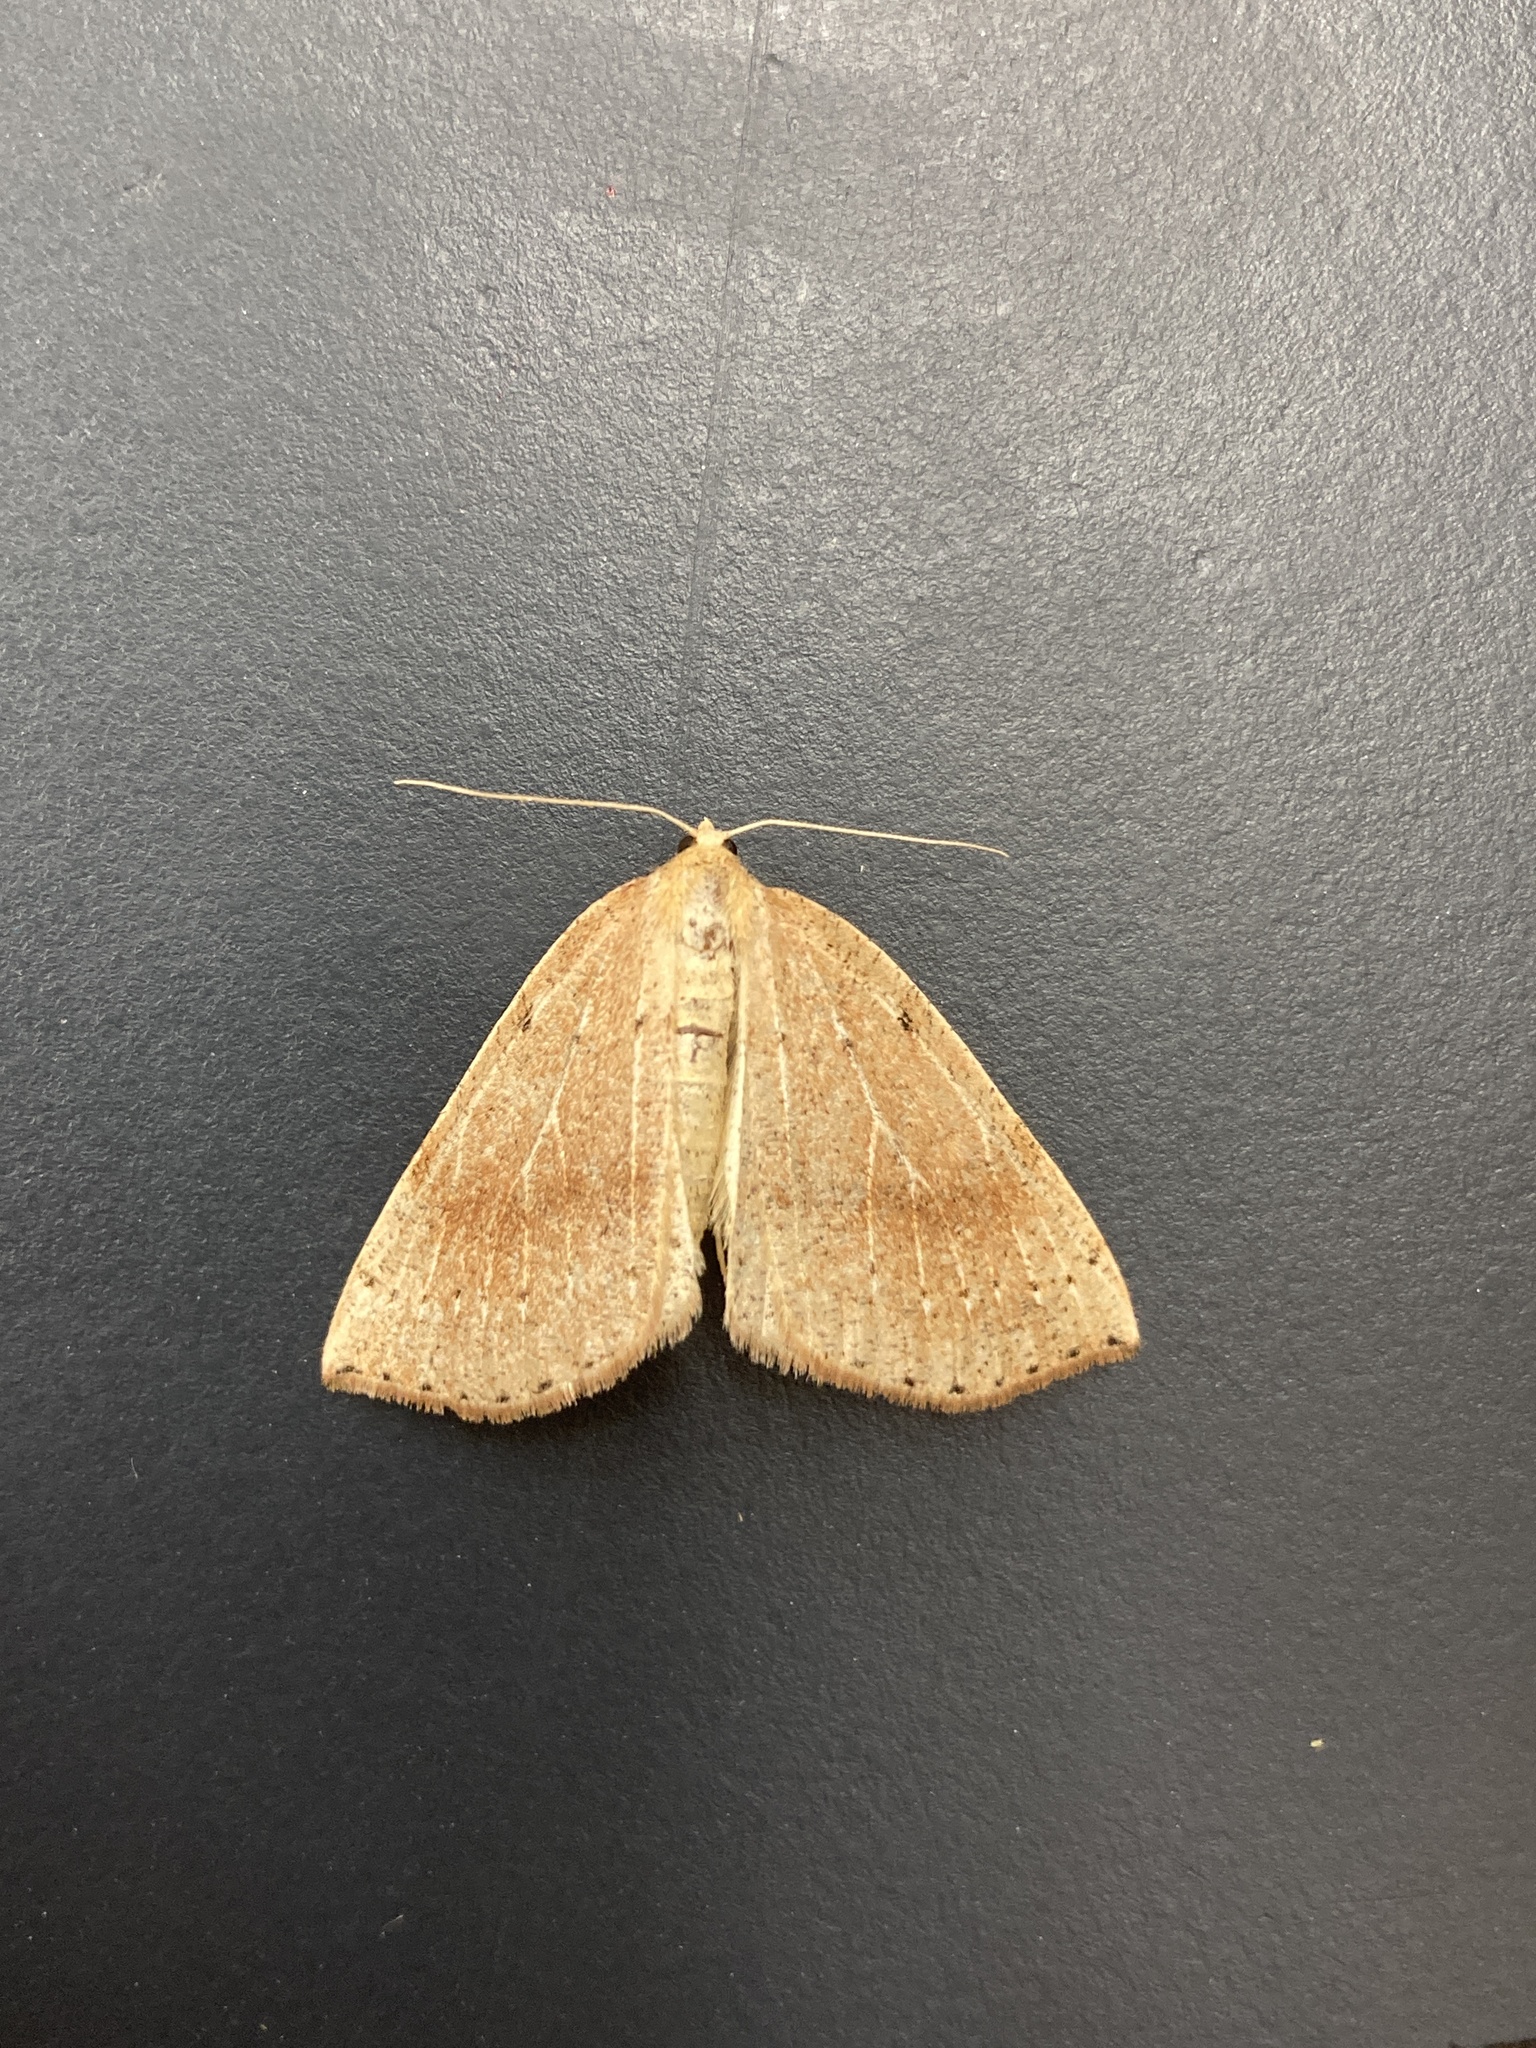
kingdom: Animalia
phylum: Arthropoda
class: Insecta
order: Lepidoptera
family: Geometridae
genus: Thallophaga
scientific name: Thallophaga hyperborea
